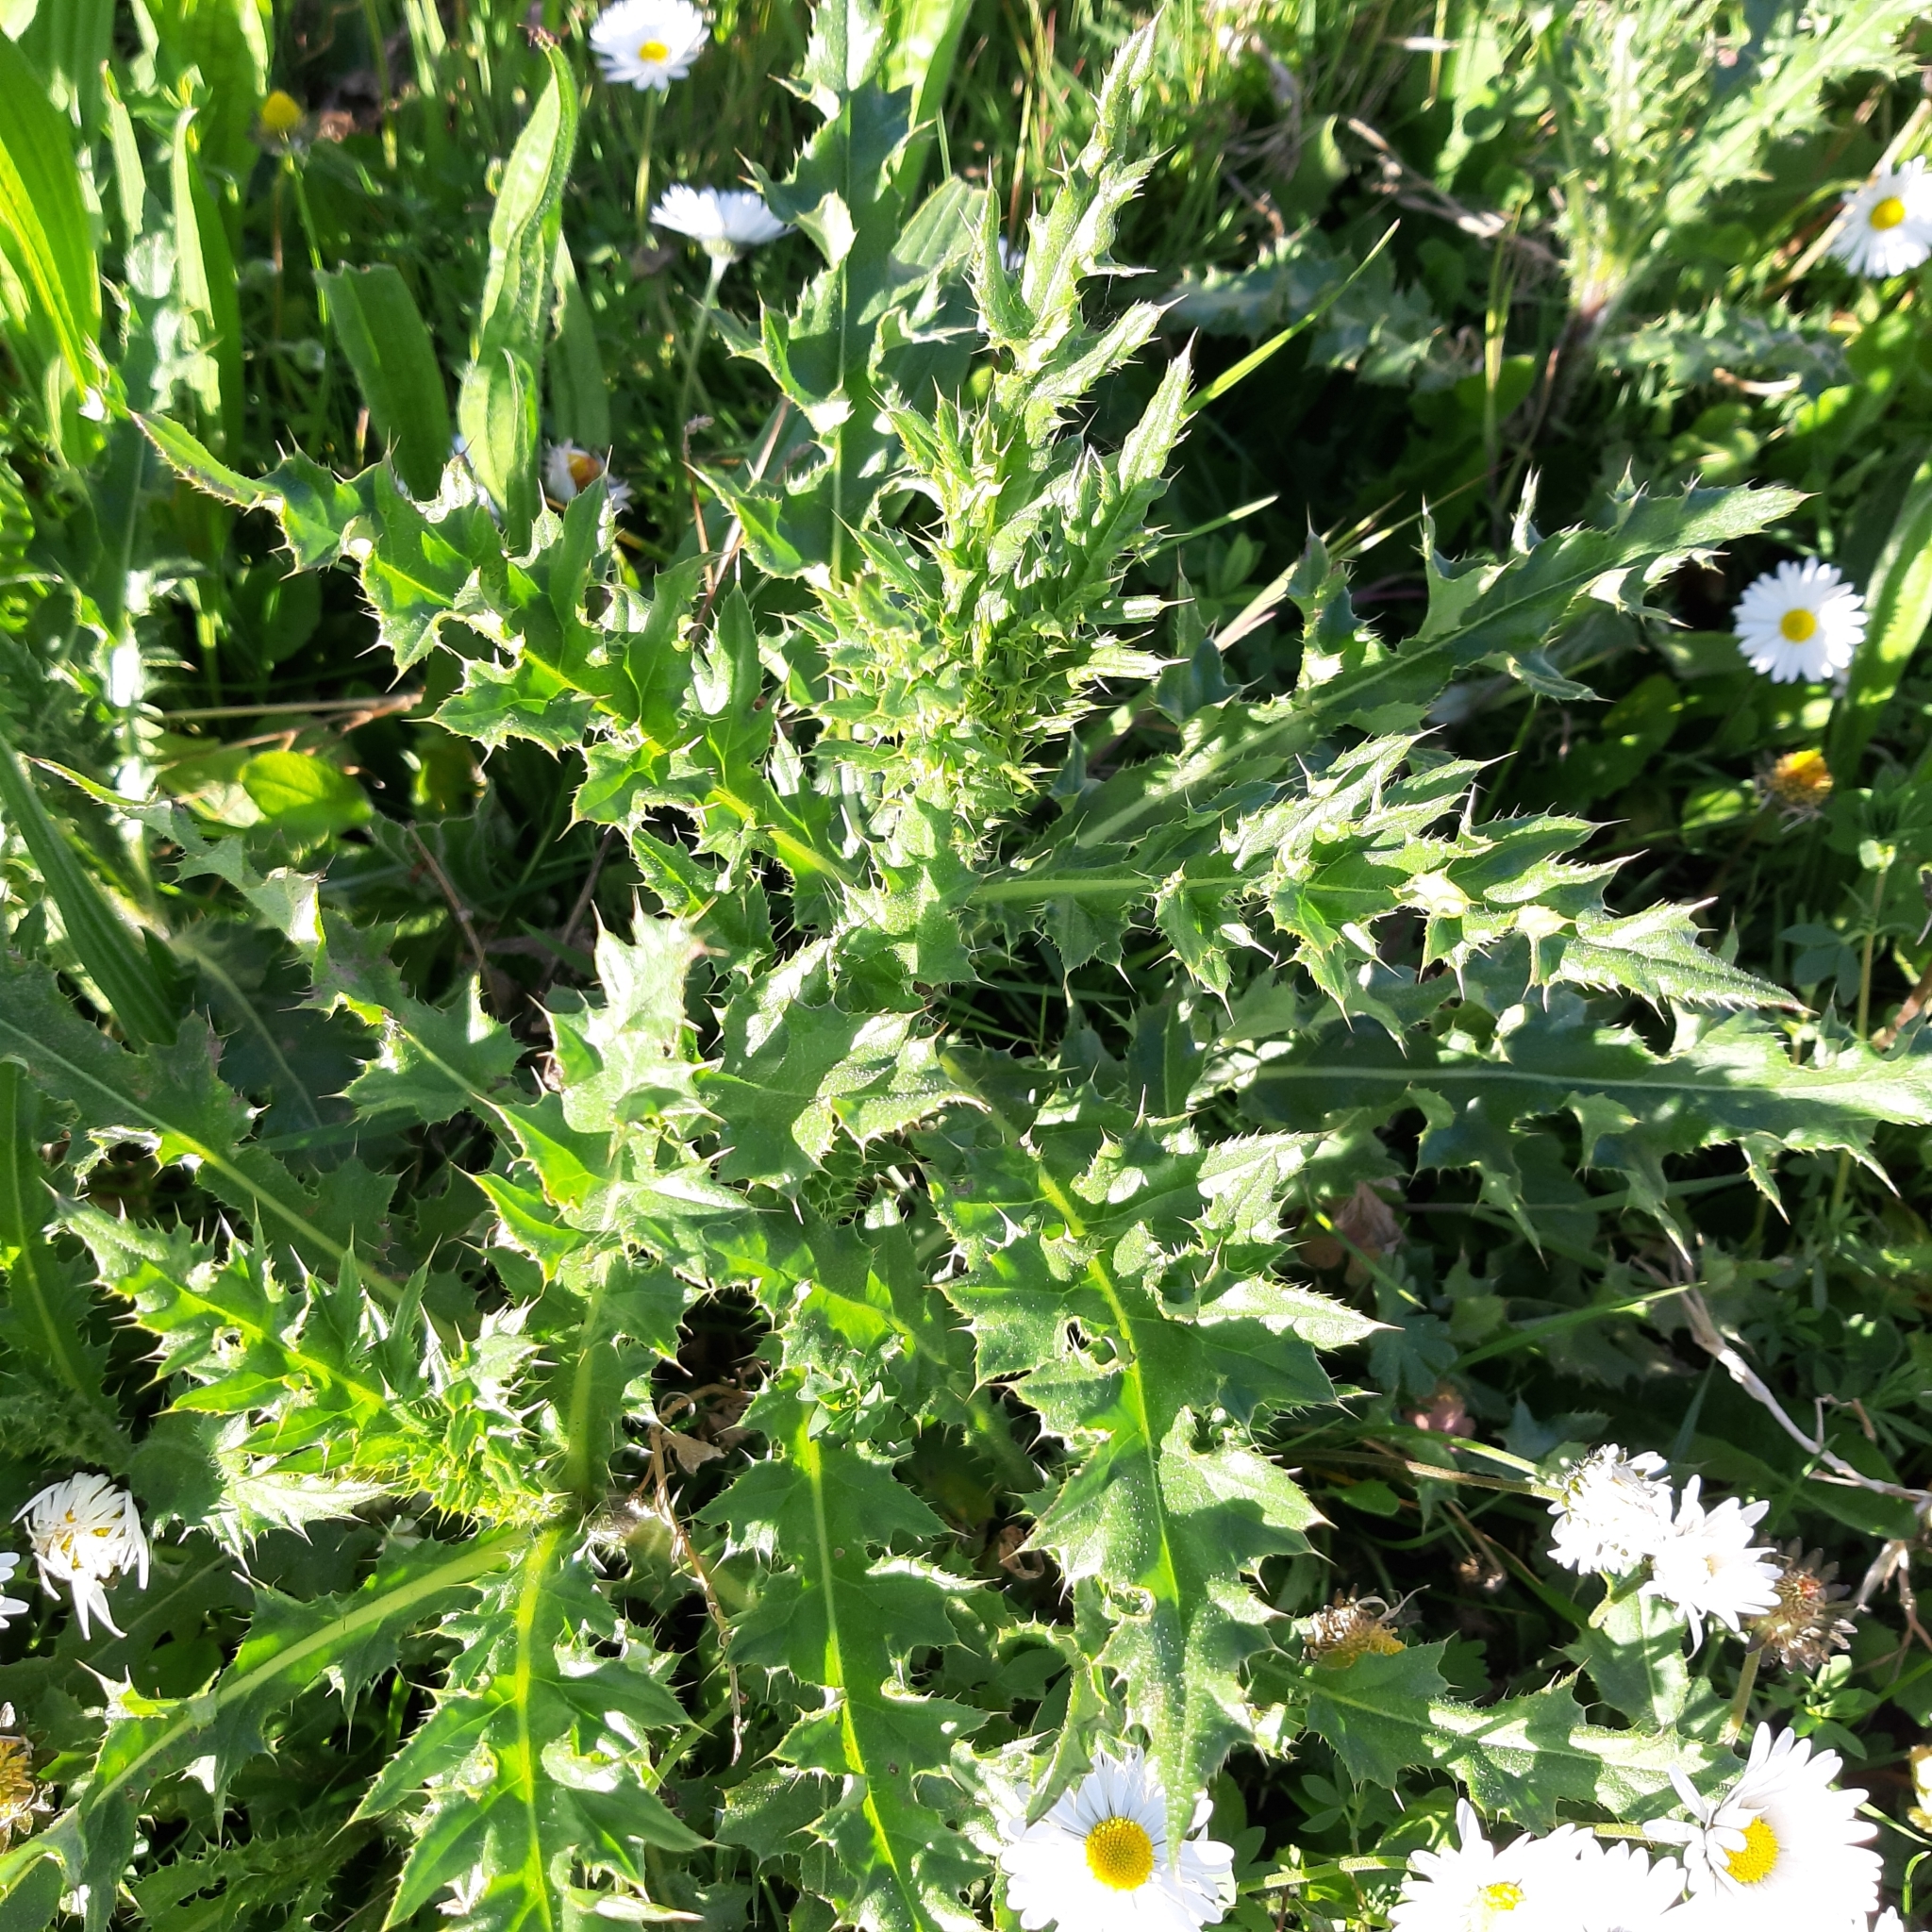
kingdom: Plantae
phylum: Tracheophyta
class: Magnoliopsida
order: Asterales
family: Asteraceae
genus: Cirsium
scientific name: Cirsium arvense
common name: Creeping thistle
